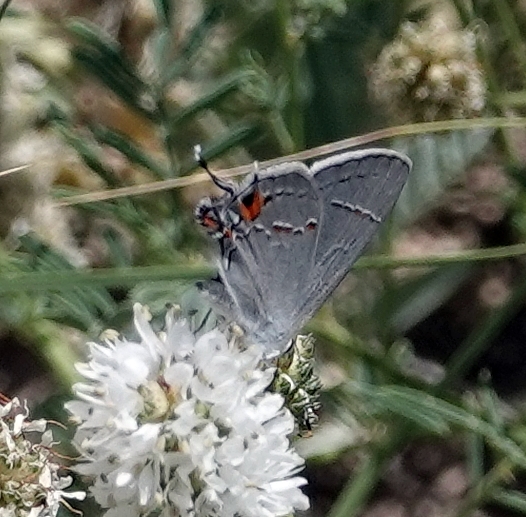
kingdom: Animalia
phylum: Arthropoda
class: Insecta
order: Lepidoptera
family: Lycaenidae
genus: Strymon
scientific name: Strymon melinus
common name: Gray hairstreak
